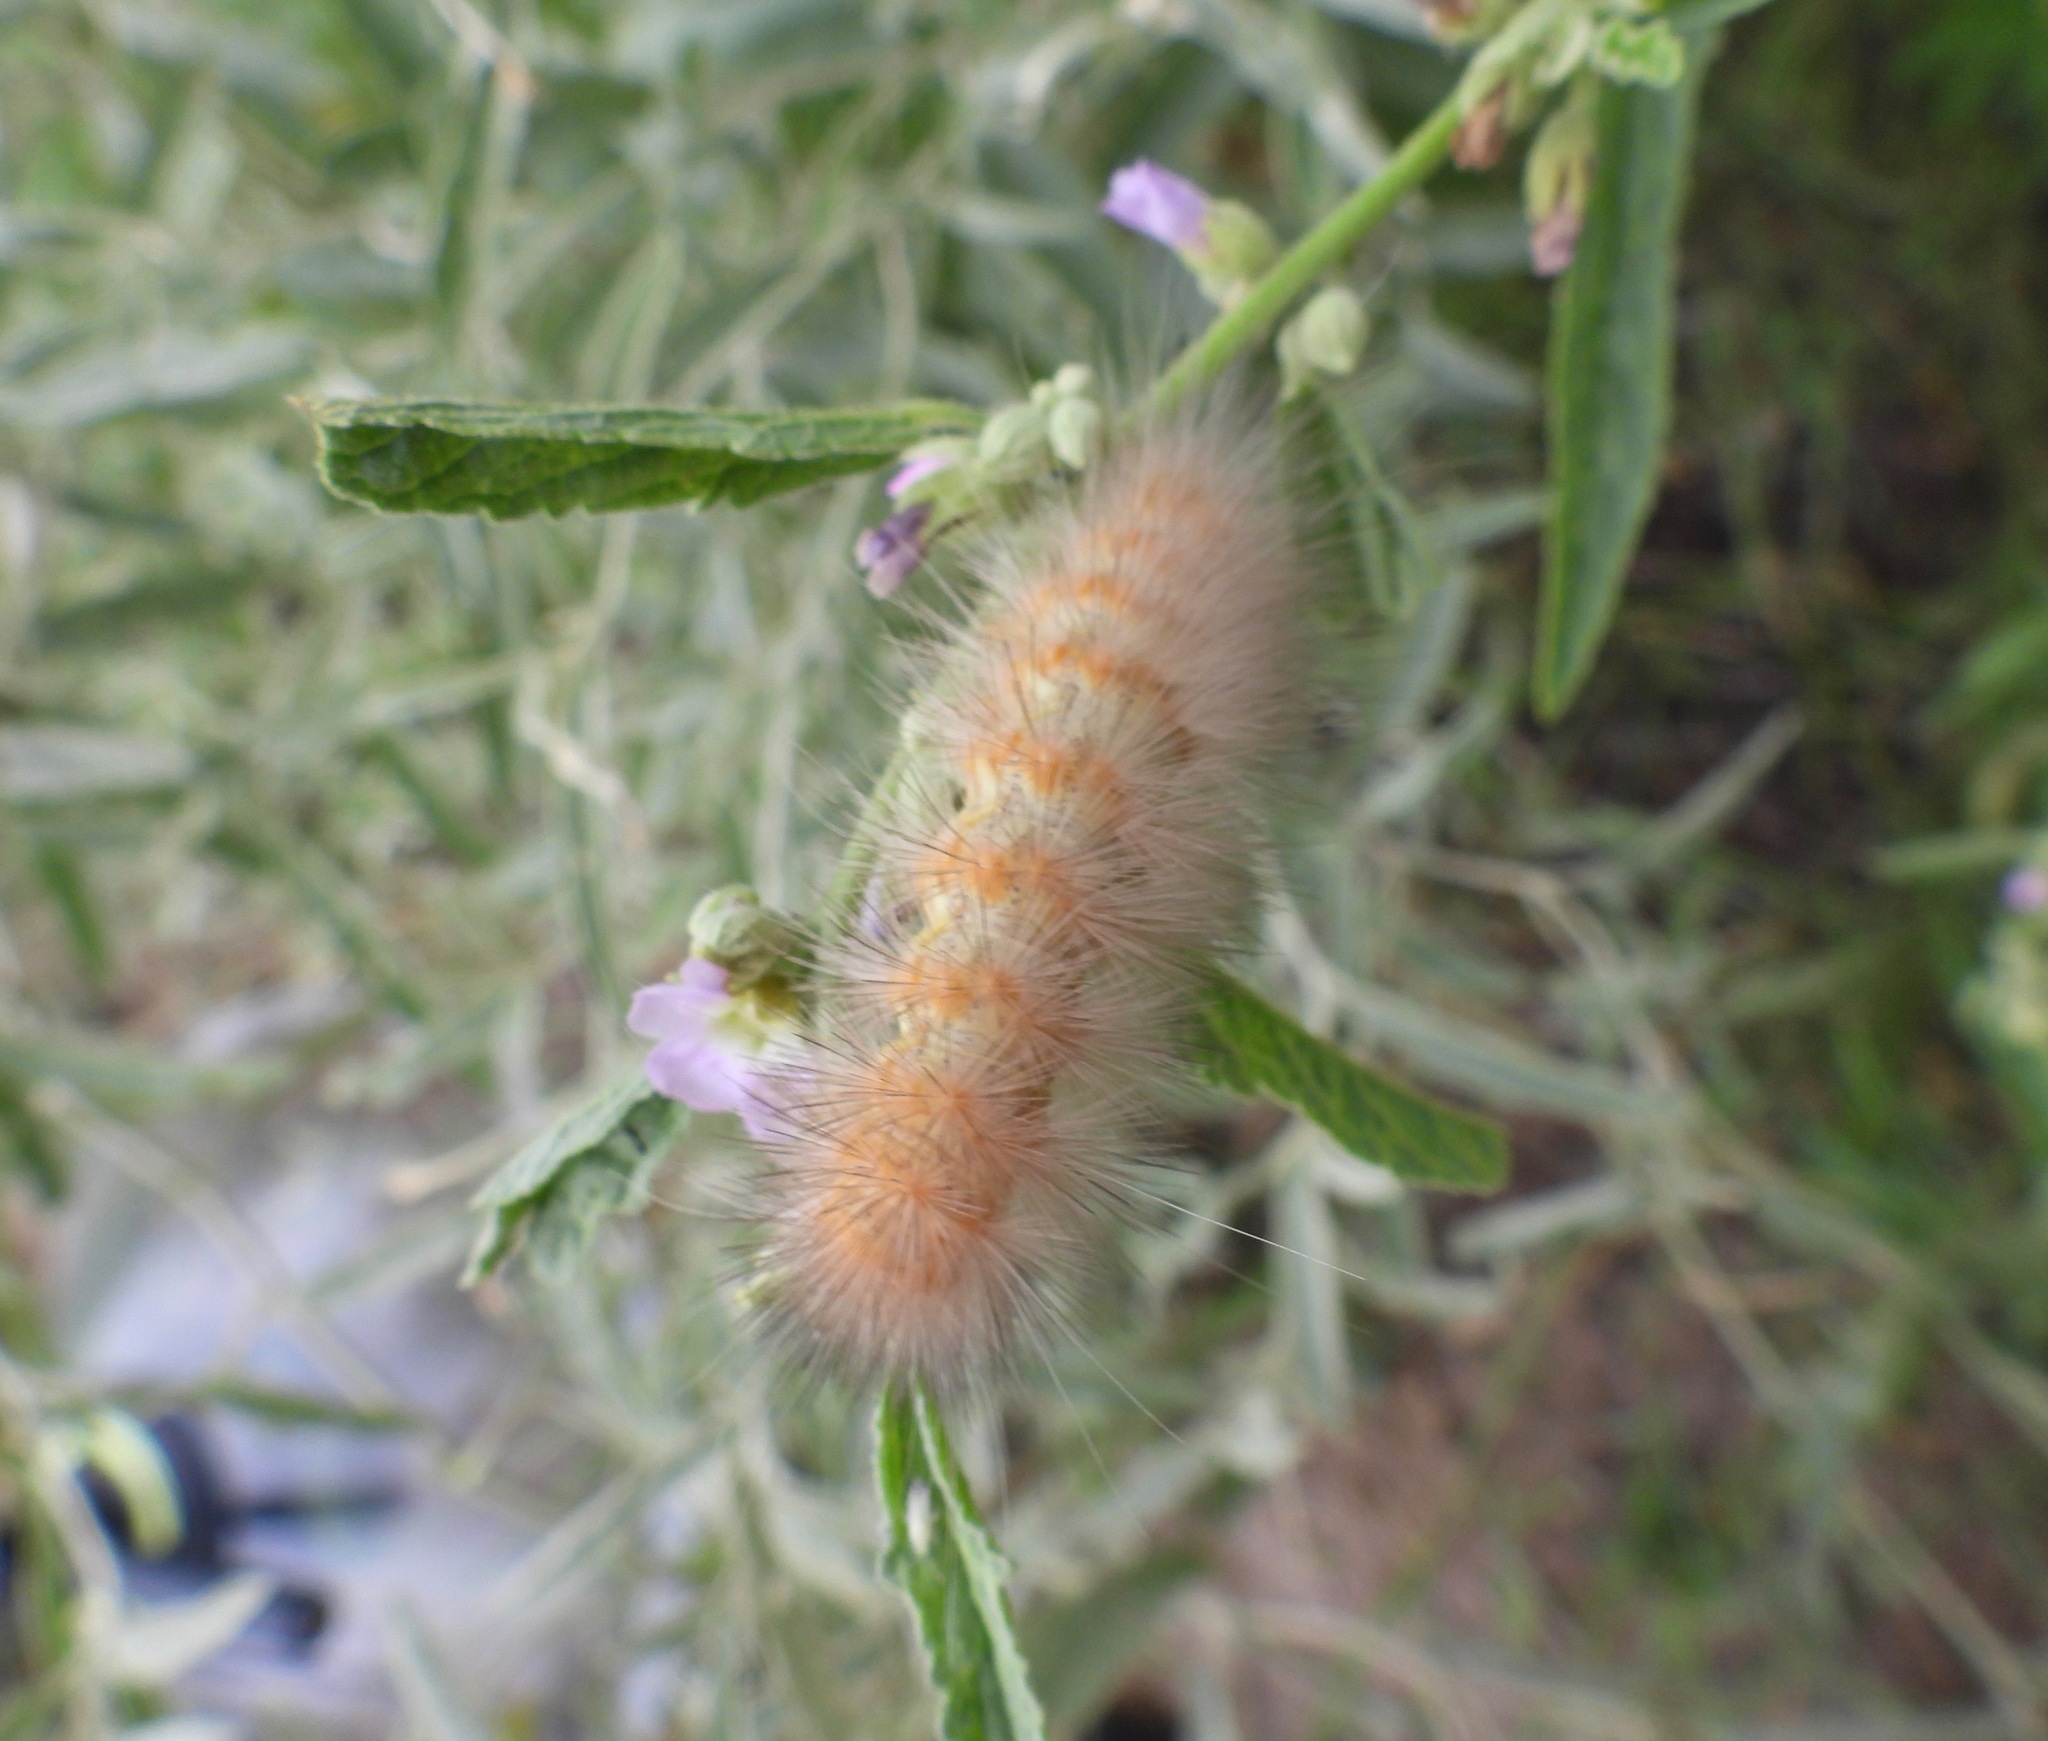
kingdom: Animalia
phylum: Arthropoda
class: Insecta
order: Lepidoptera
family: Erebidae
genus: Estigmene
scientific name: Estigmene
